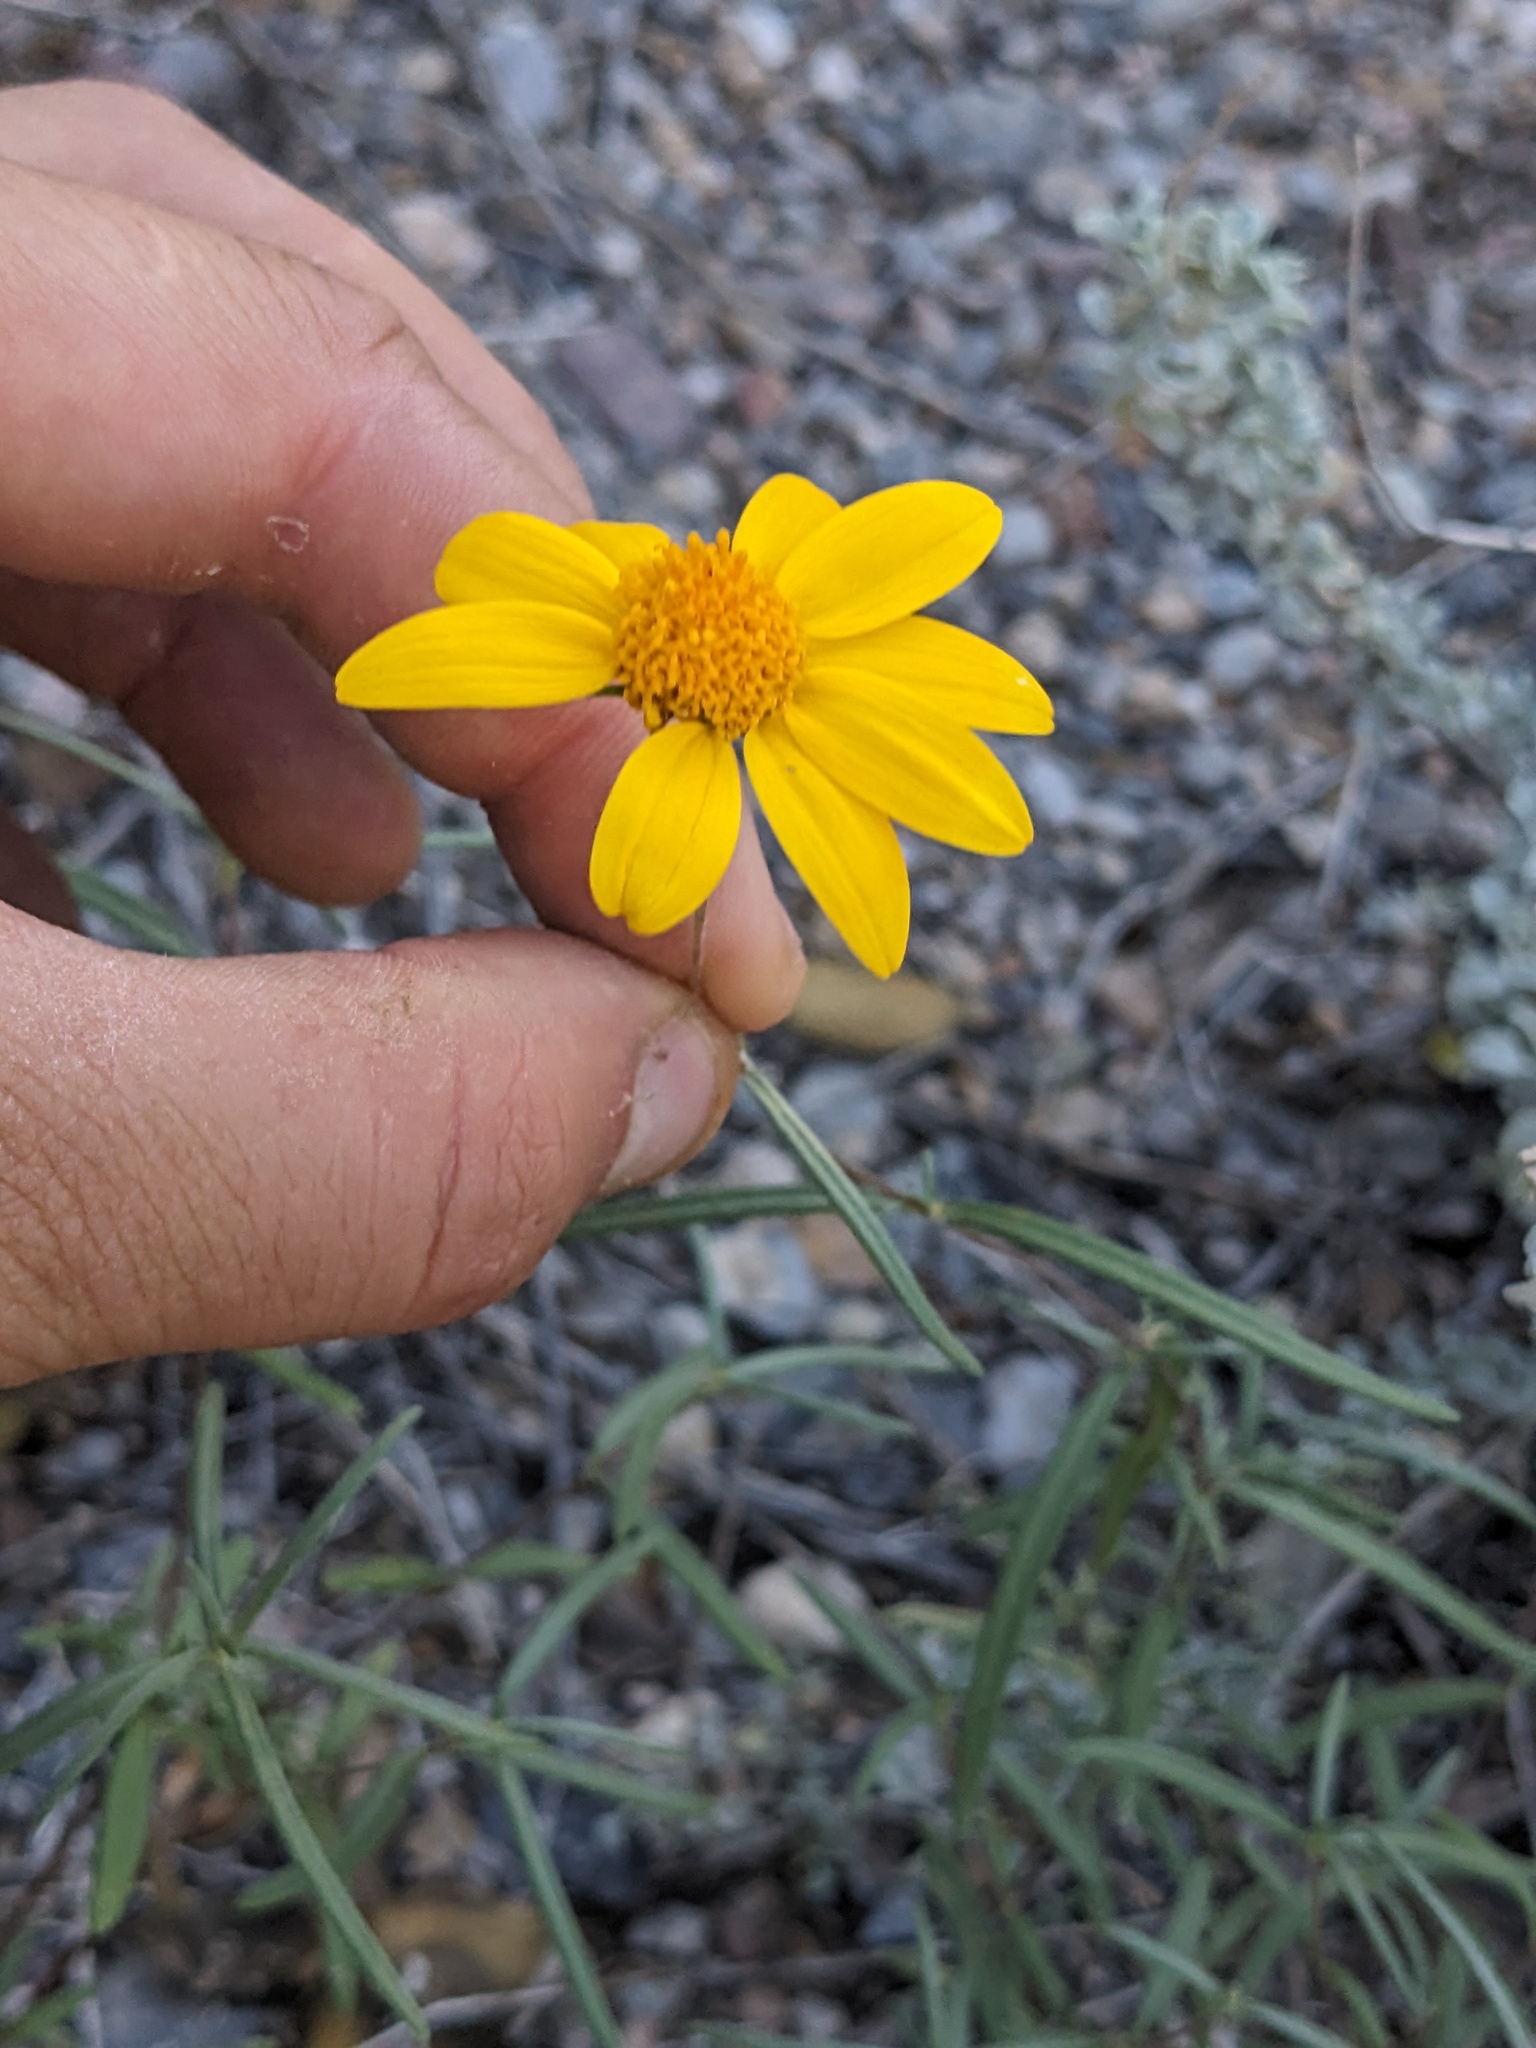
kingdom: Plantae
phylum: Tracheophyta
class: Magnoliopsida
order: Asterales
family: Asteraceae
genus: Heliomeris
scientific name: Heliomeris multiflora
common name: Showy goldeneye
